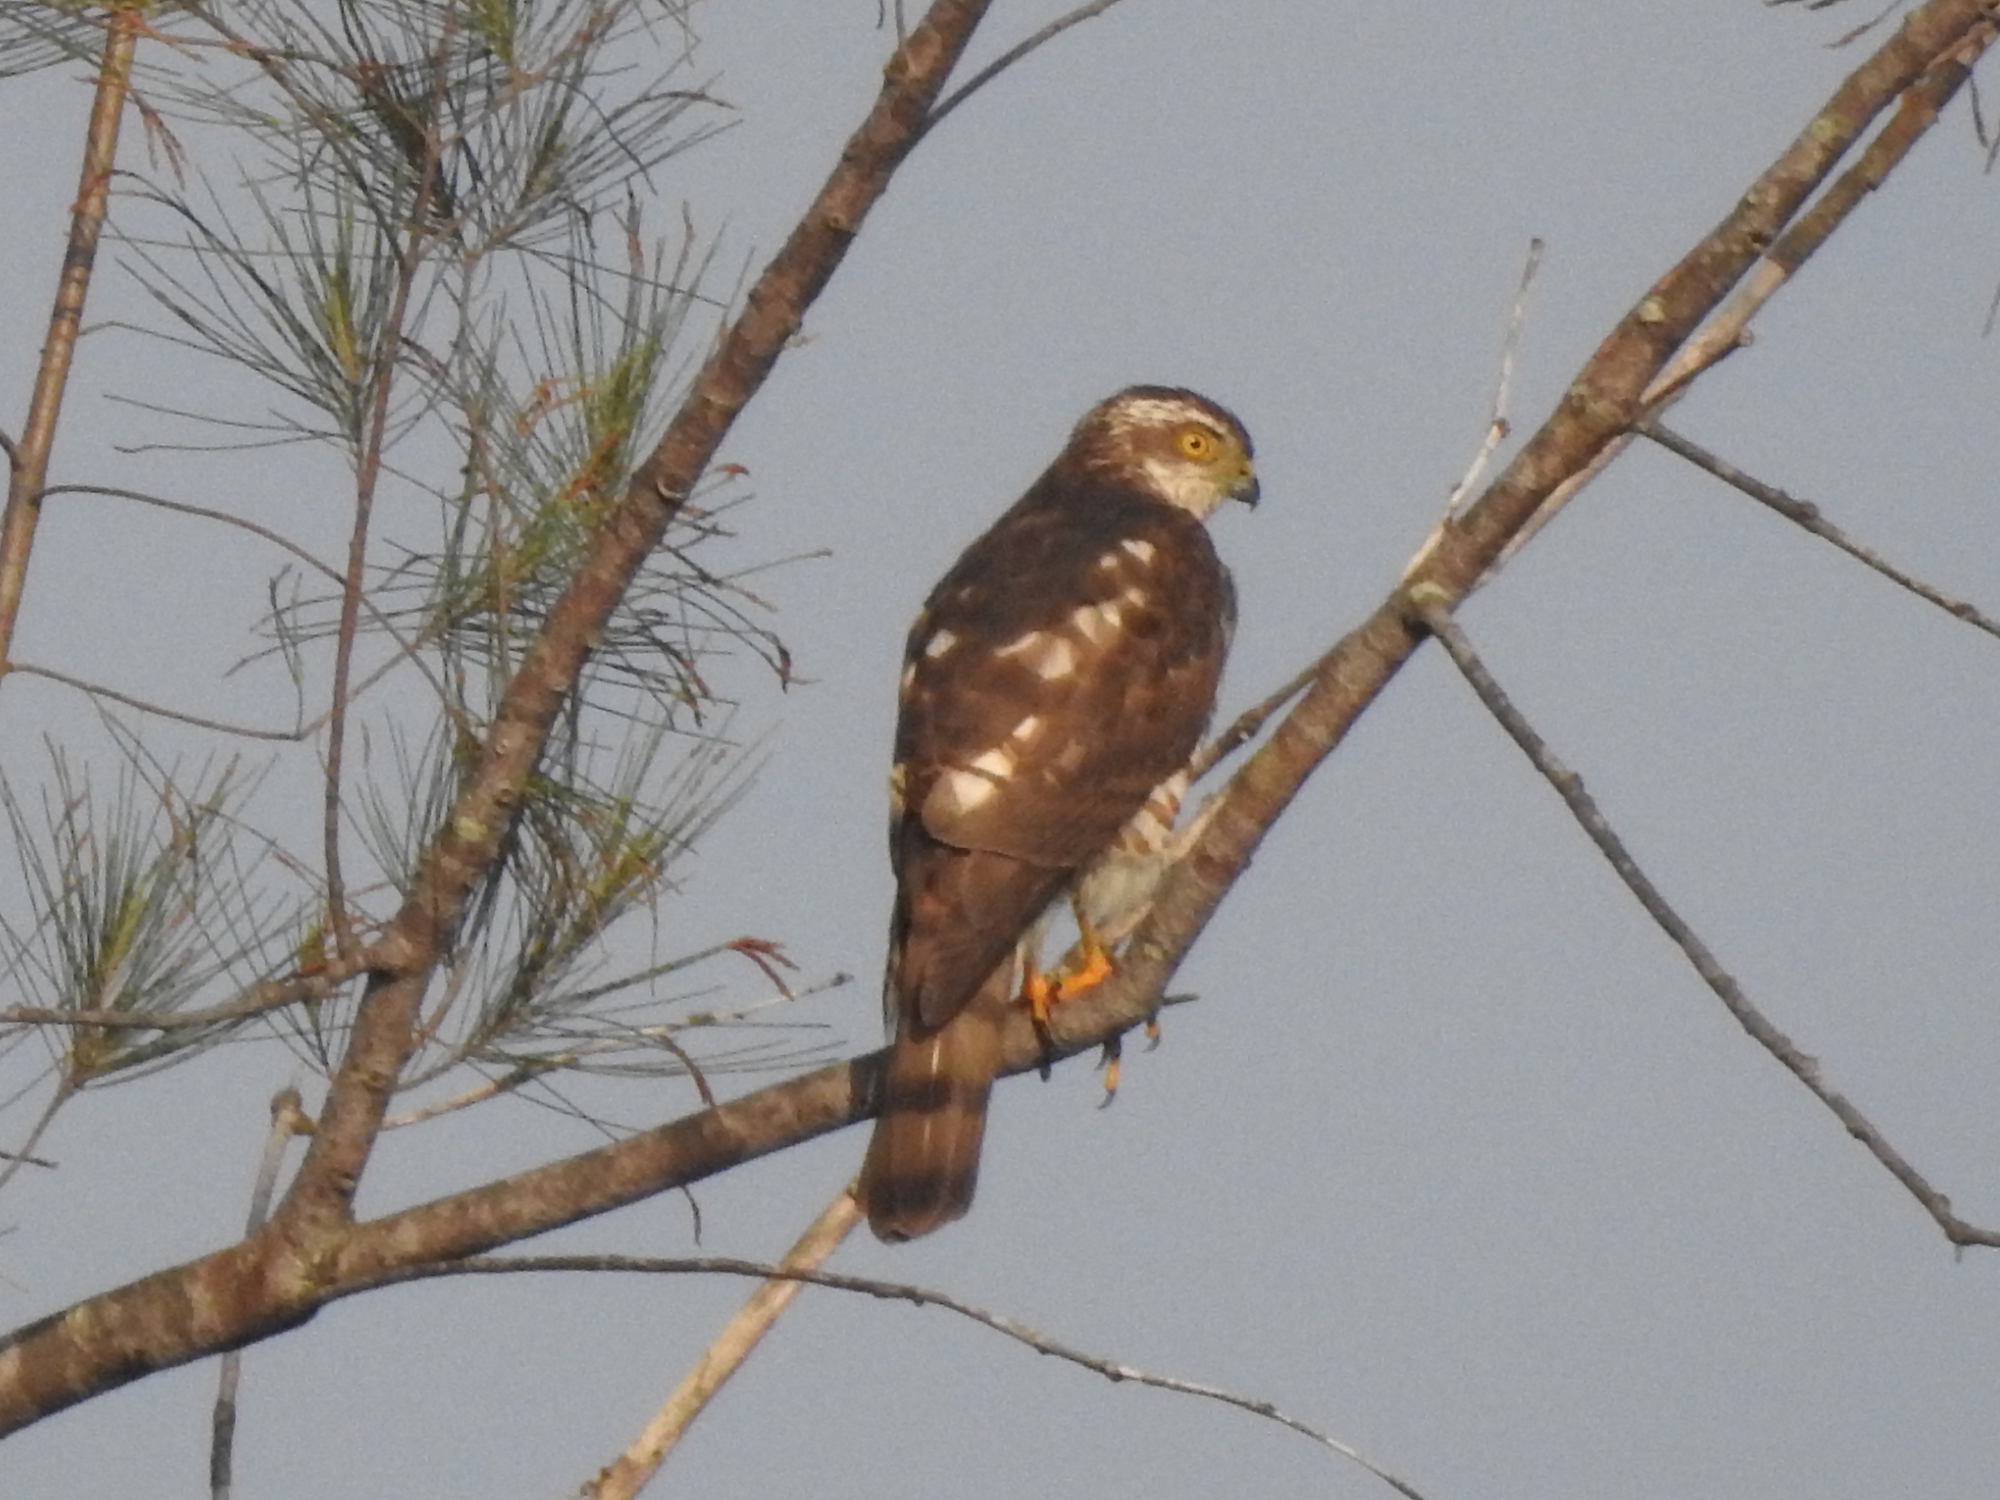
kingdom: Animalia
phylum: Chordata
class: Aves
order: Accipitriformes
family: Accipitridae
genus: Accipiter
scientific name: Accipiter gularis
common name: Japanese sparrowhawk
